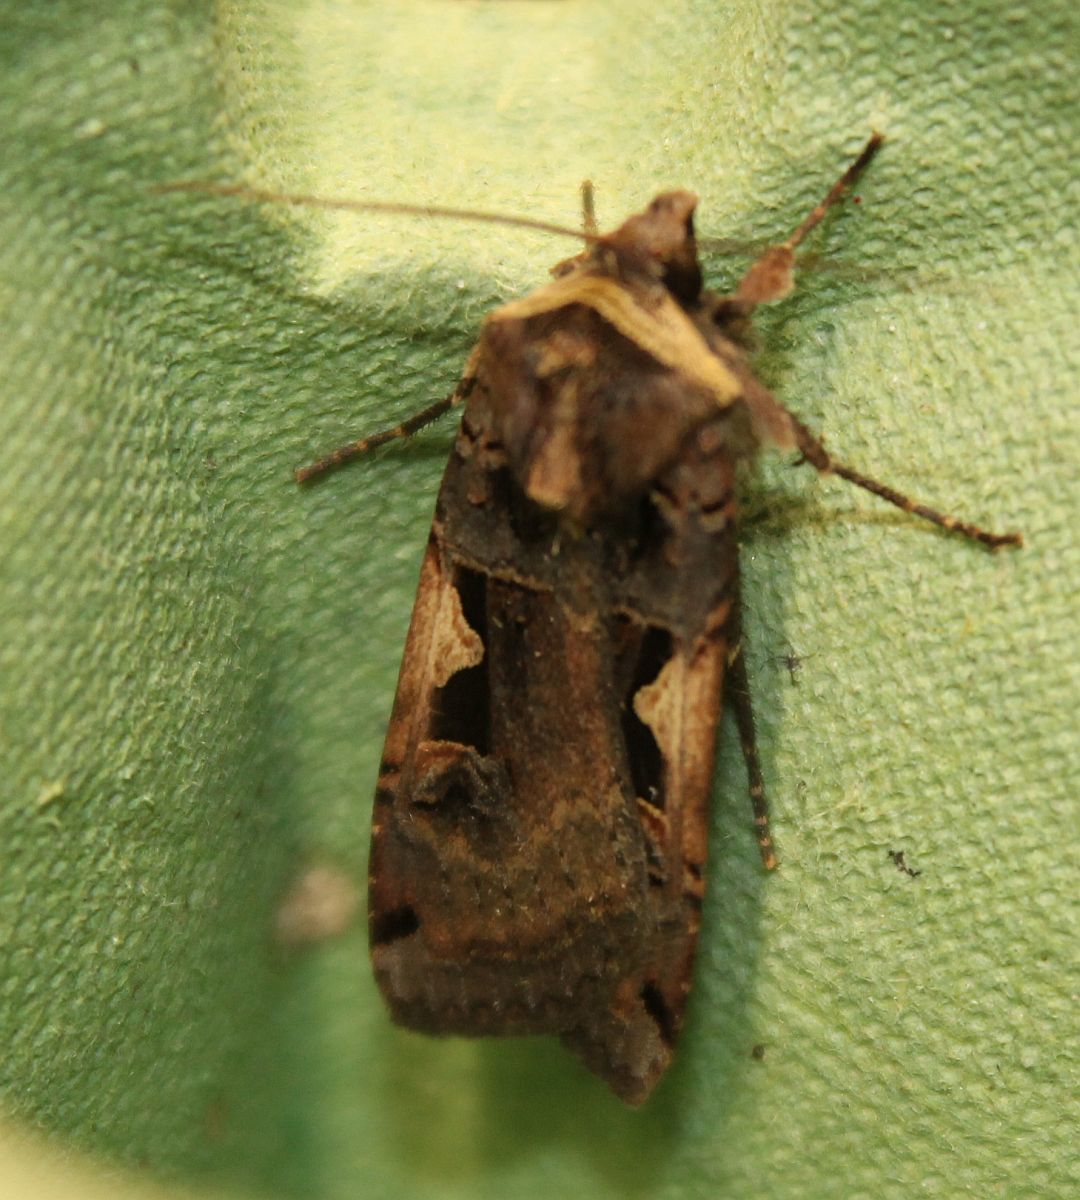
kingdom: Animalia
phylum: Arthropoda
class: Insecta
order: Lepidoptera
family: Noctuidae
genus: Xestia
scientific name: Xestia c-nigrum
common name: Setaceous hebrew character
